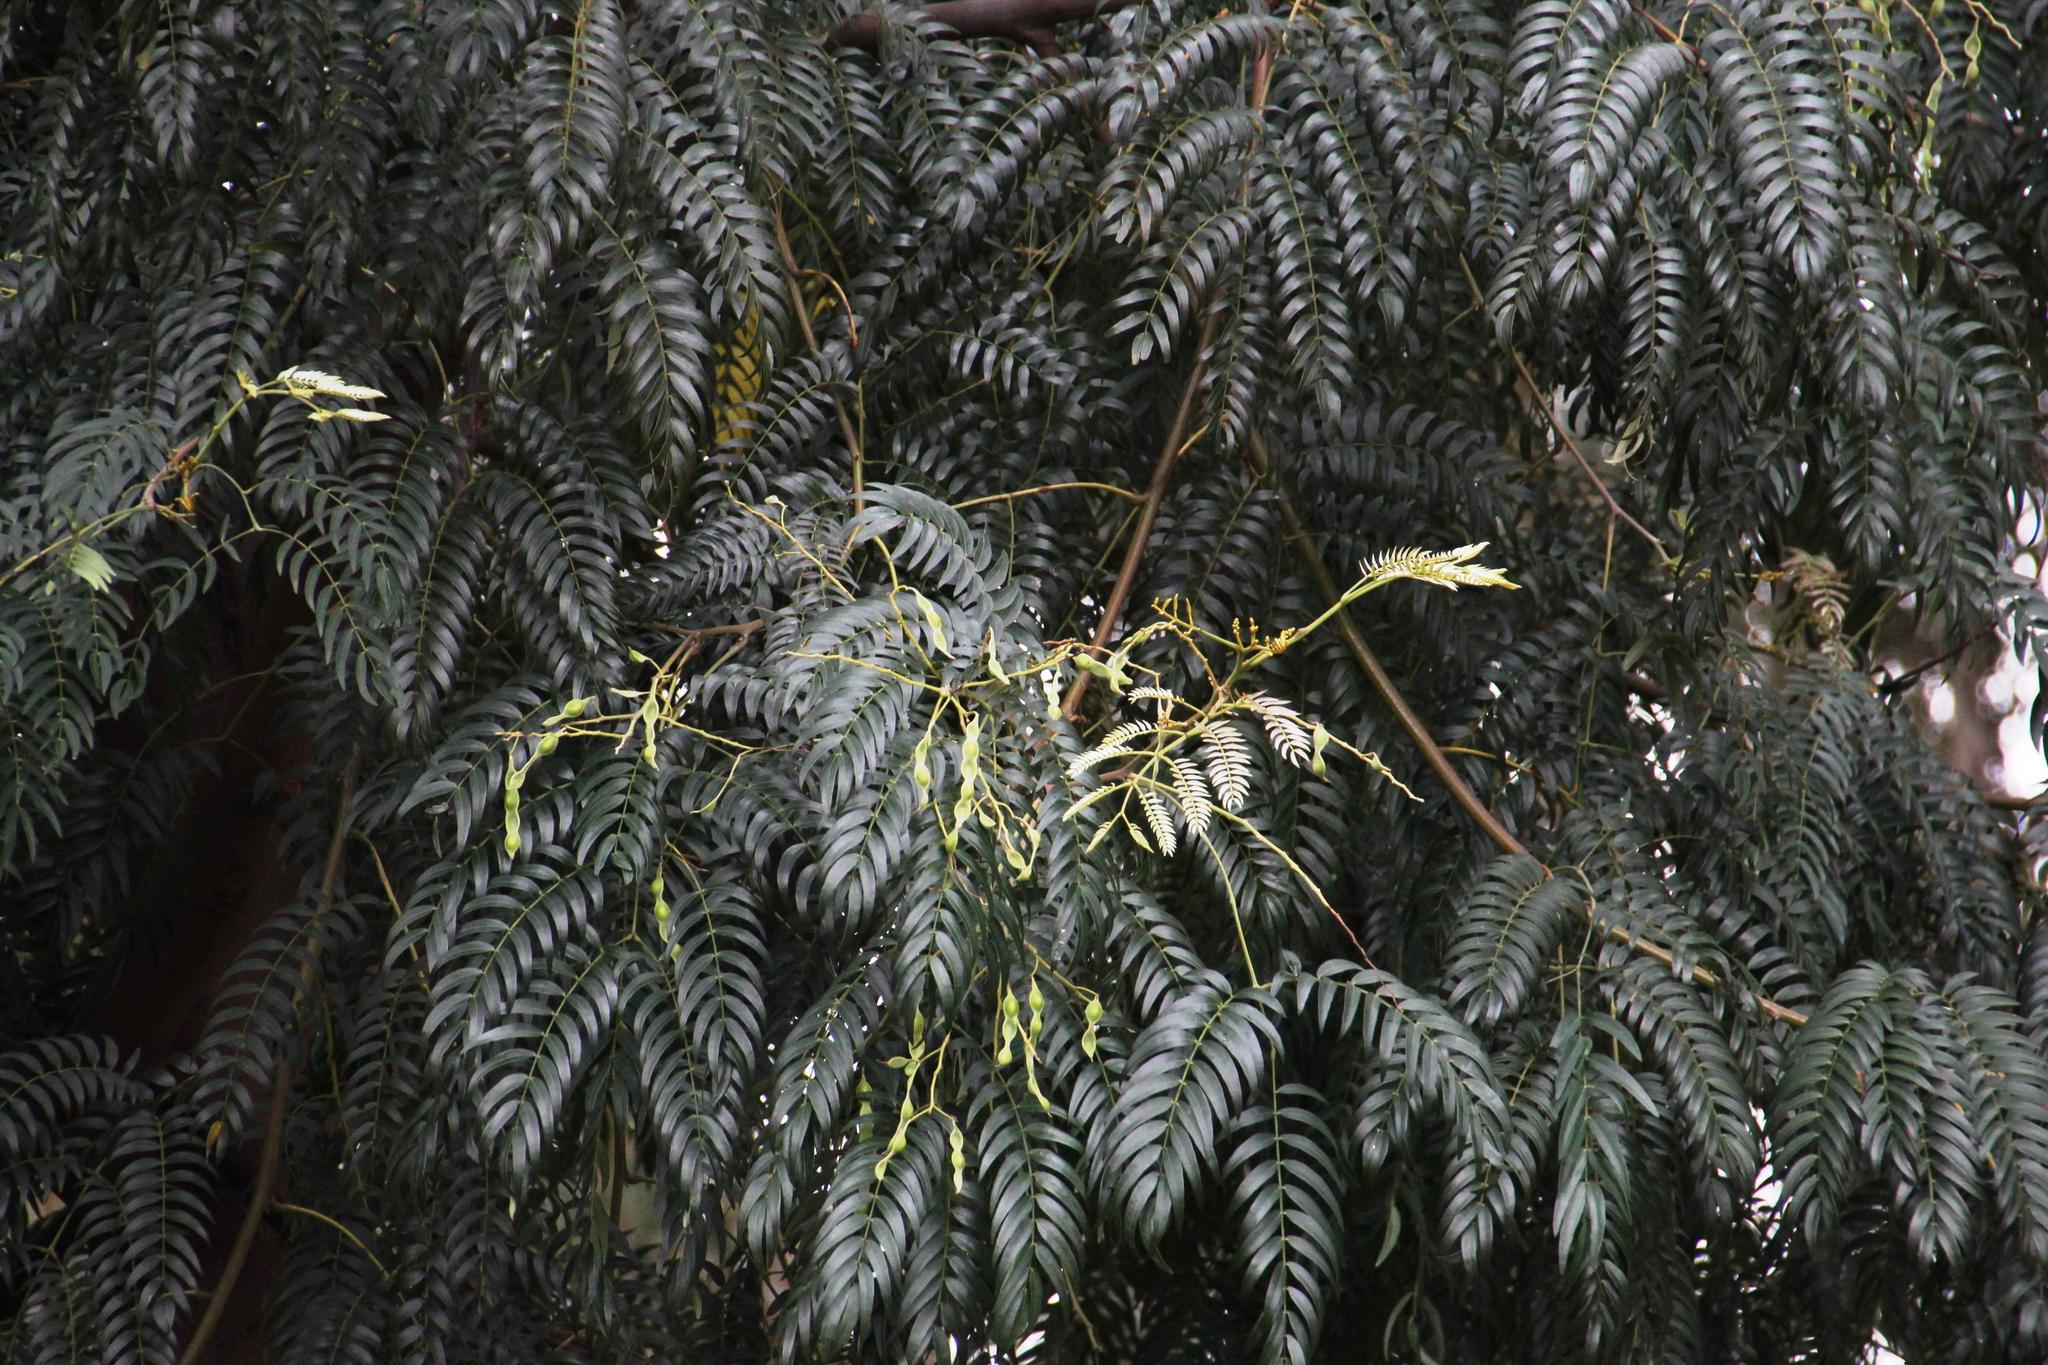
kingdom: Plantae
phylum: Tracheophyta
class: Magnoliopsida
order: Fabales
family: Fabaceae
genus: Acacia
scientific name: Acacia elata
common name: Cedar wattle
